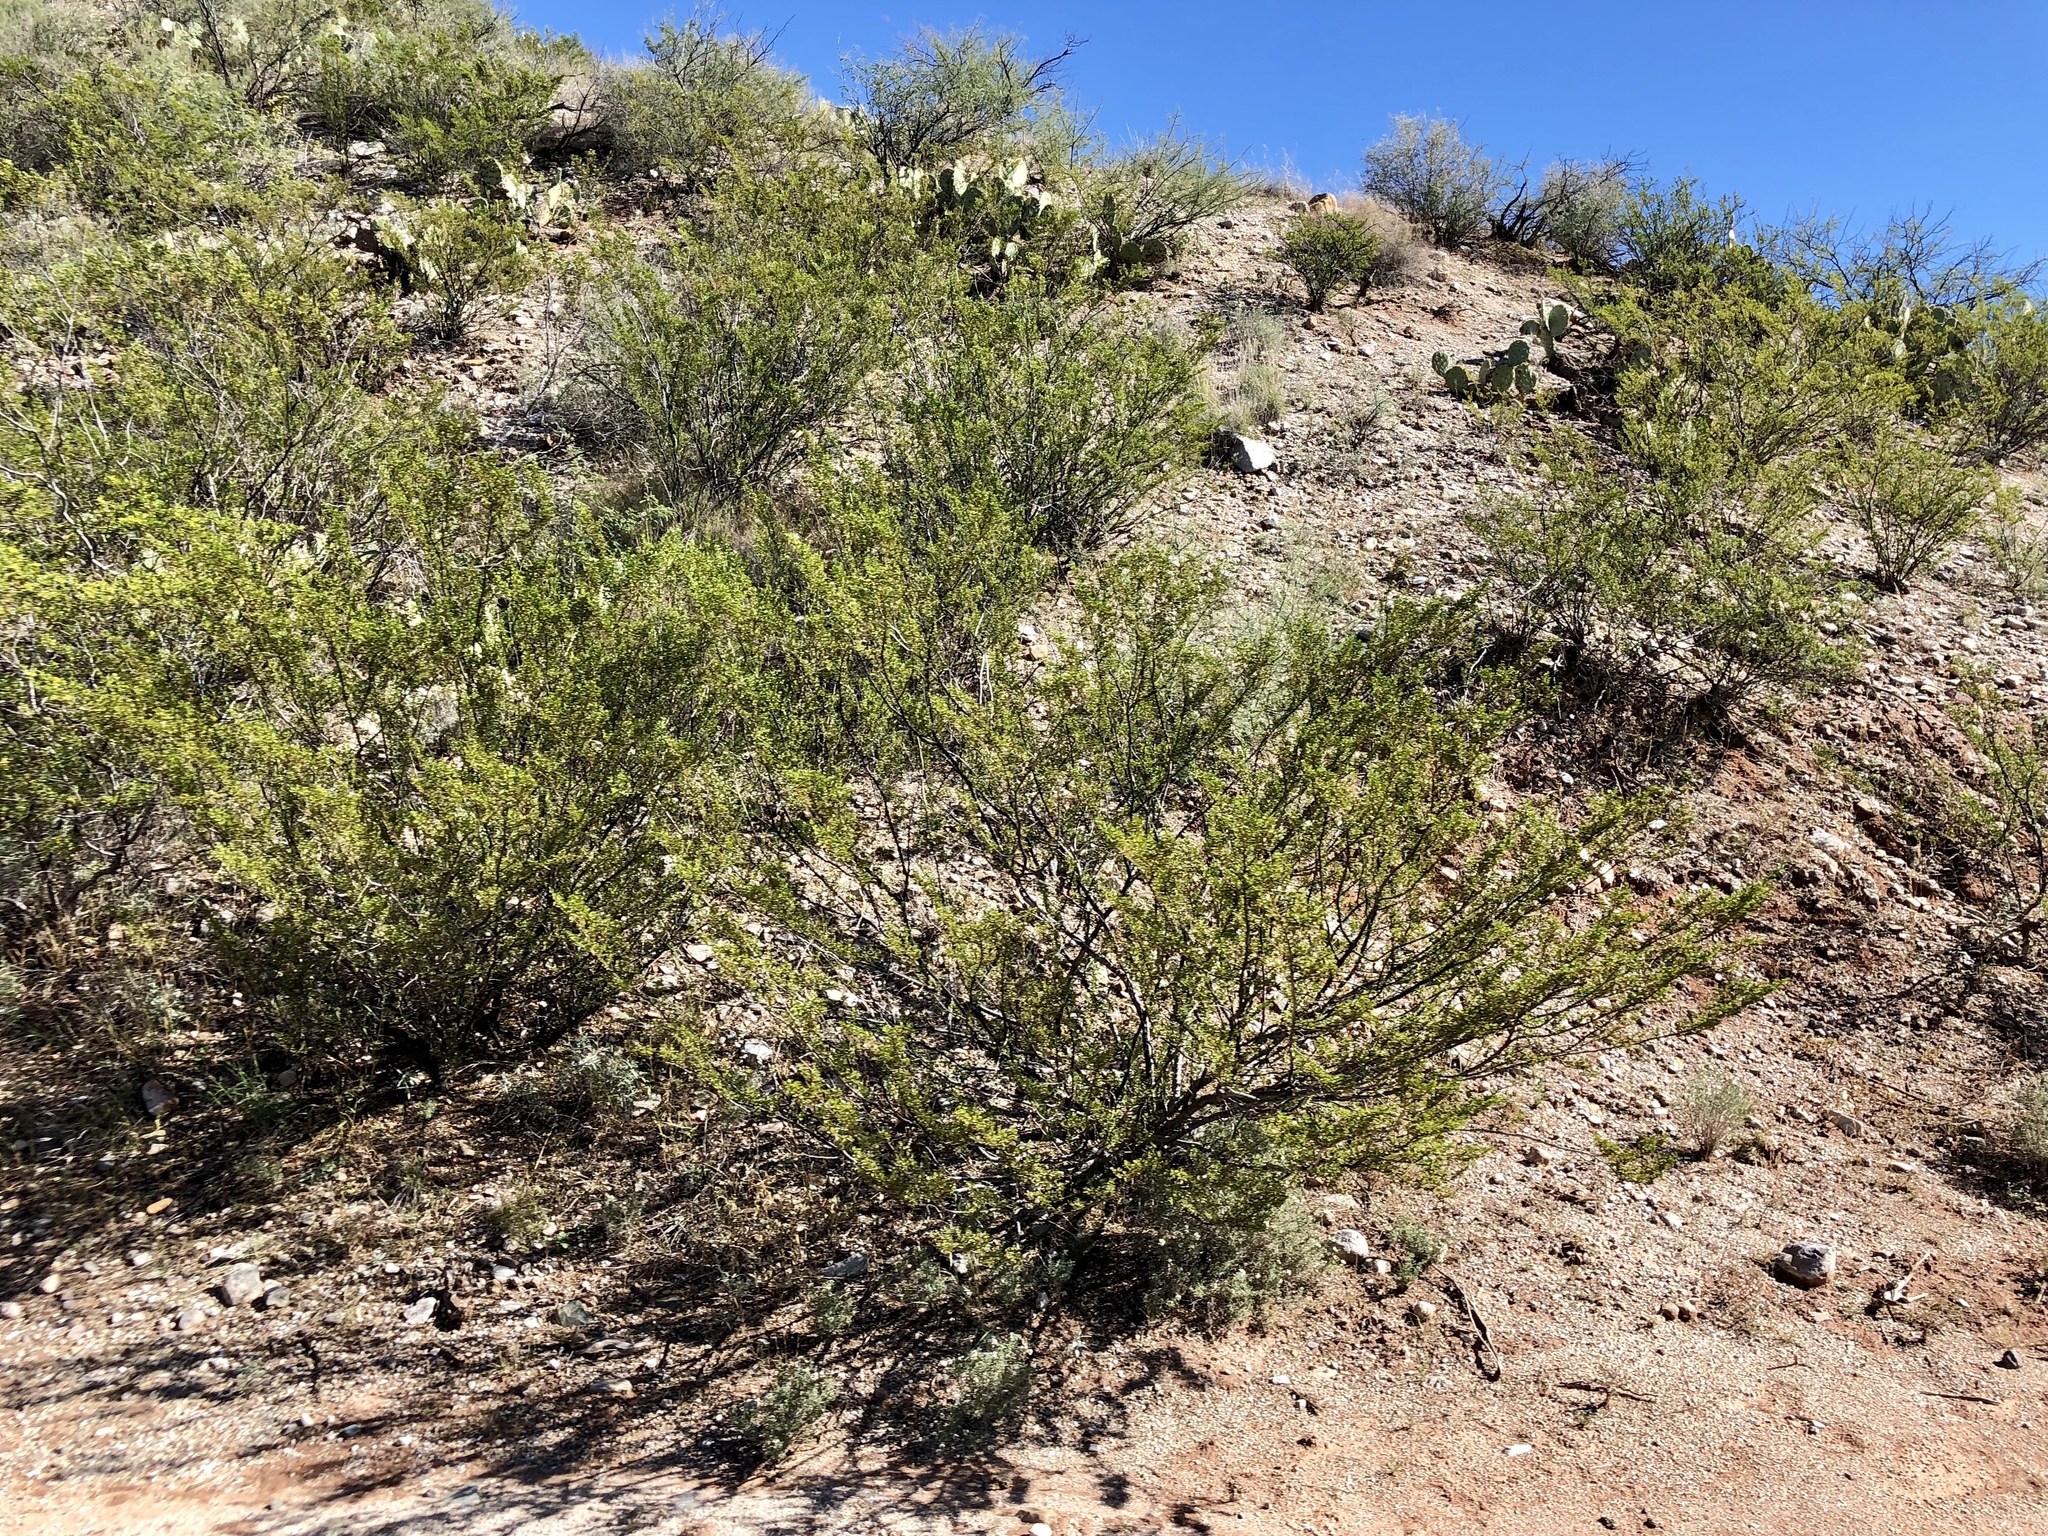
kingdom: Plantae
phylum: Tracheophyta
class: Magnoliopsida
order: Zygophyllales
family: Zygophyllaceae
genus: Larrea
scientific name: Larrea tridentata
